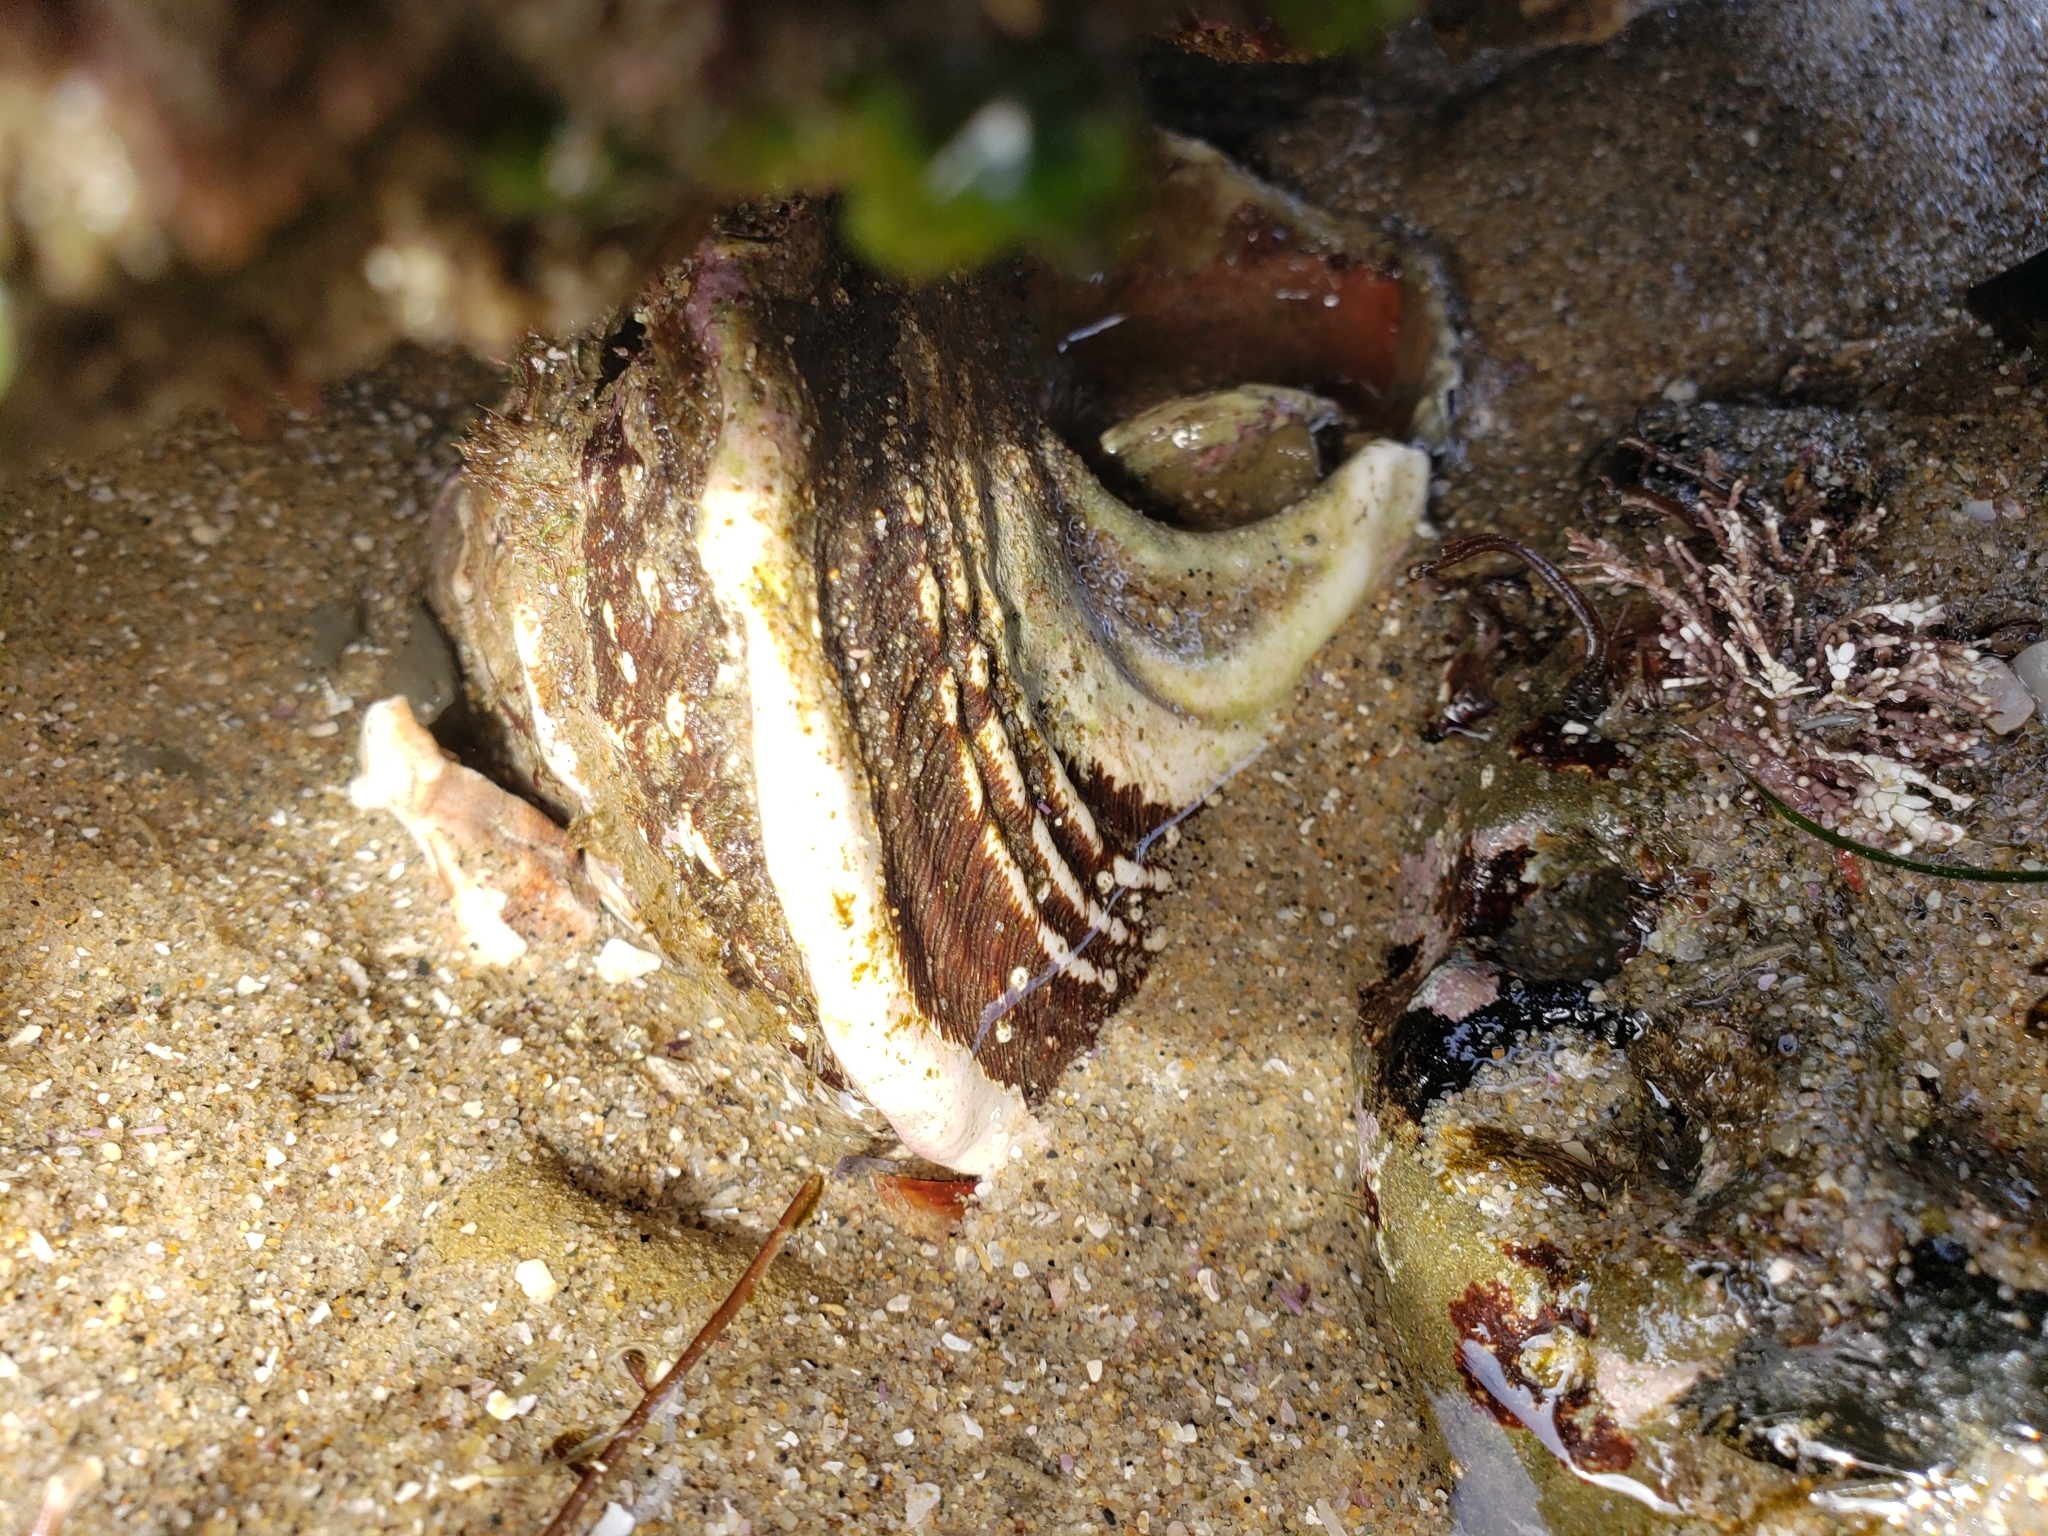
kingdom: Animalia
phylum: Mollusca
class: Gastropoda
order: Trochida
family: Turbinidae
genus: Megastraea
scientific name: Megastraea undosa
